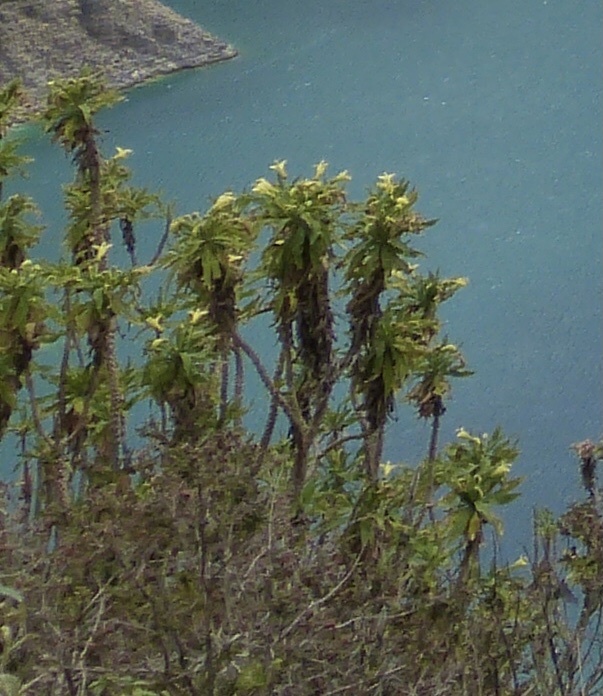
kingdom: Plantae
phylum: Tracheophyta
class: Magnoliopsida
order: Asterales
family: Campanulaceae
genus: Siphocampylus
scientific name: Siphocampylus giganteus
